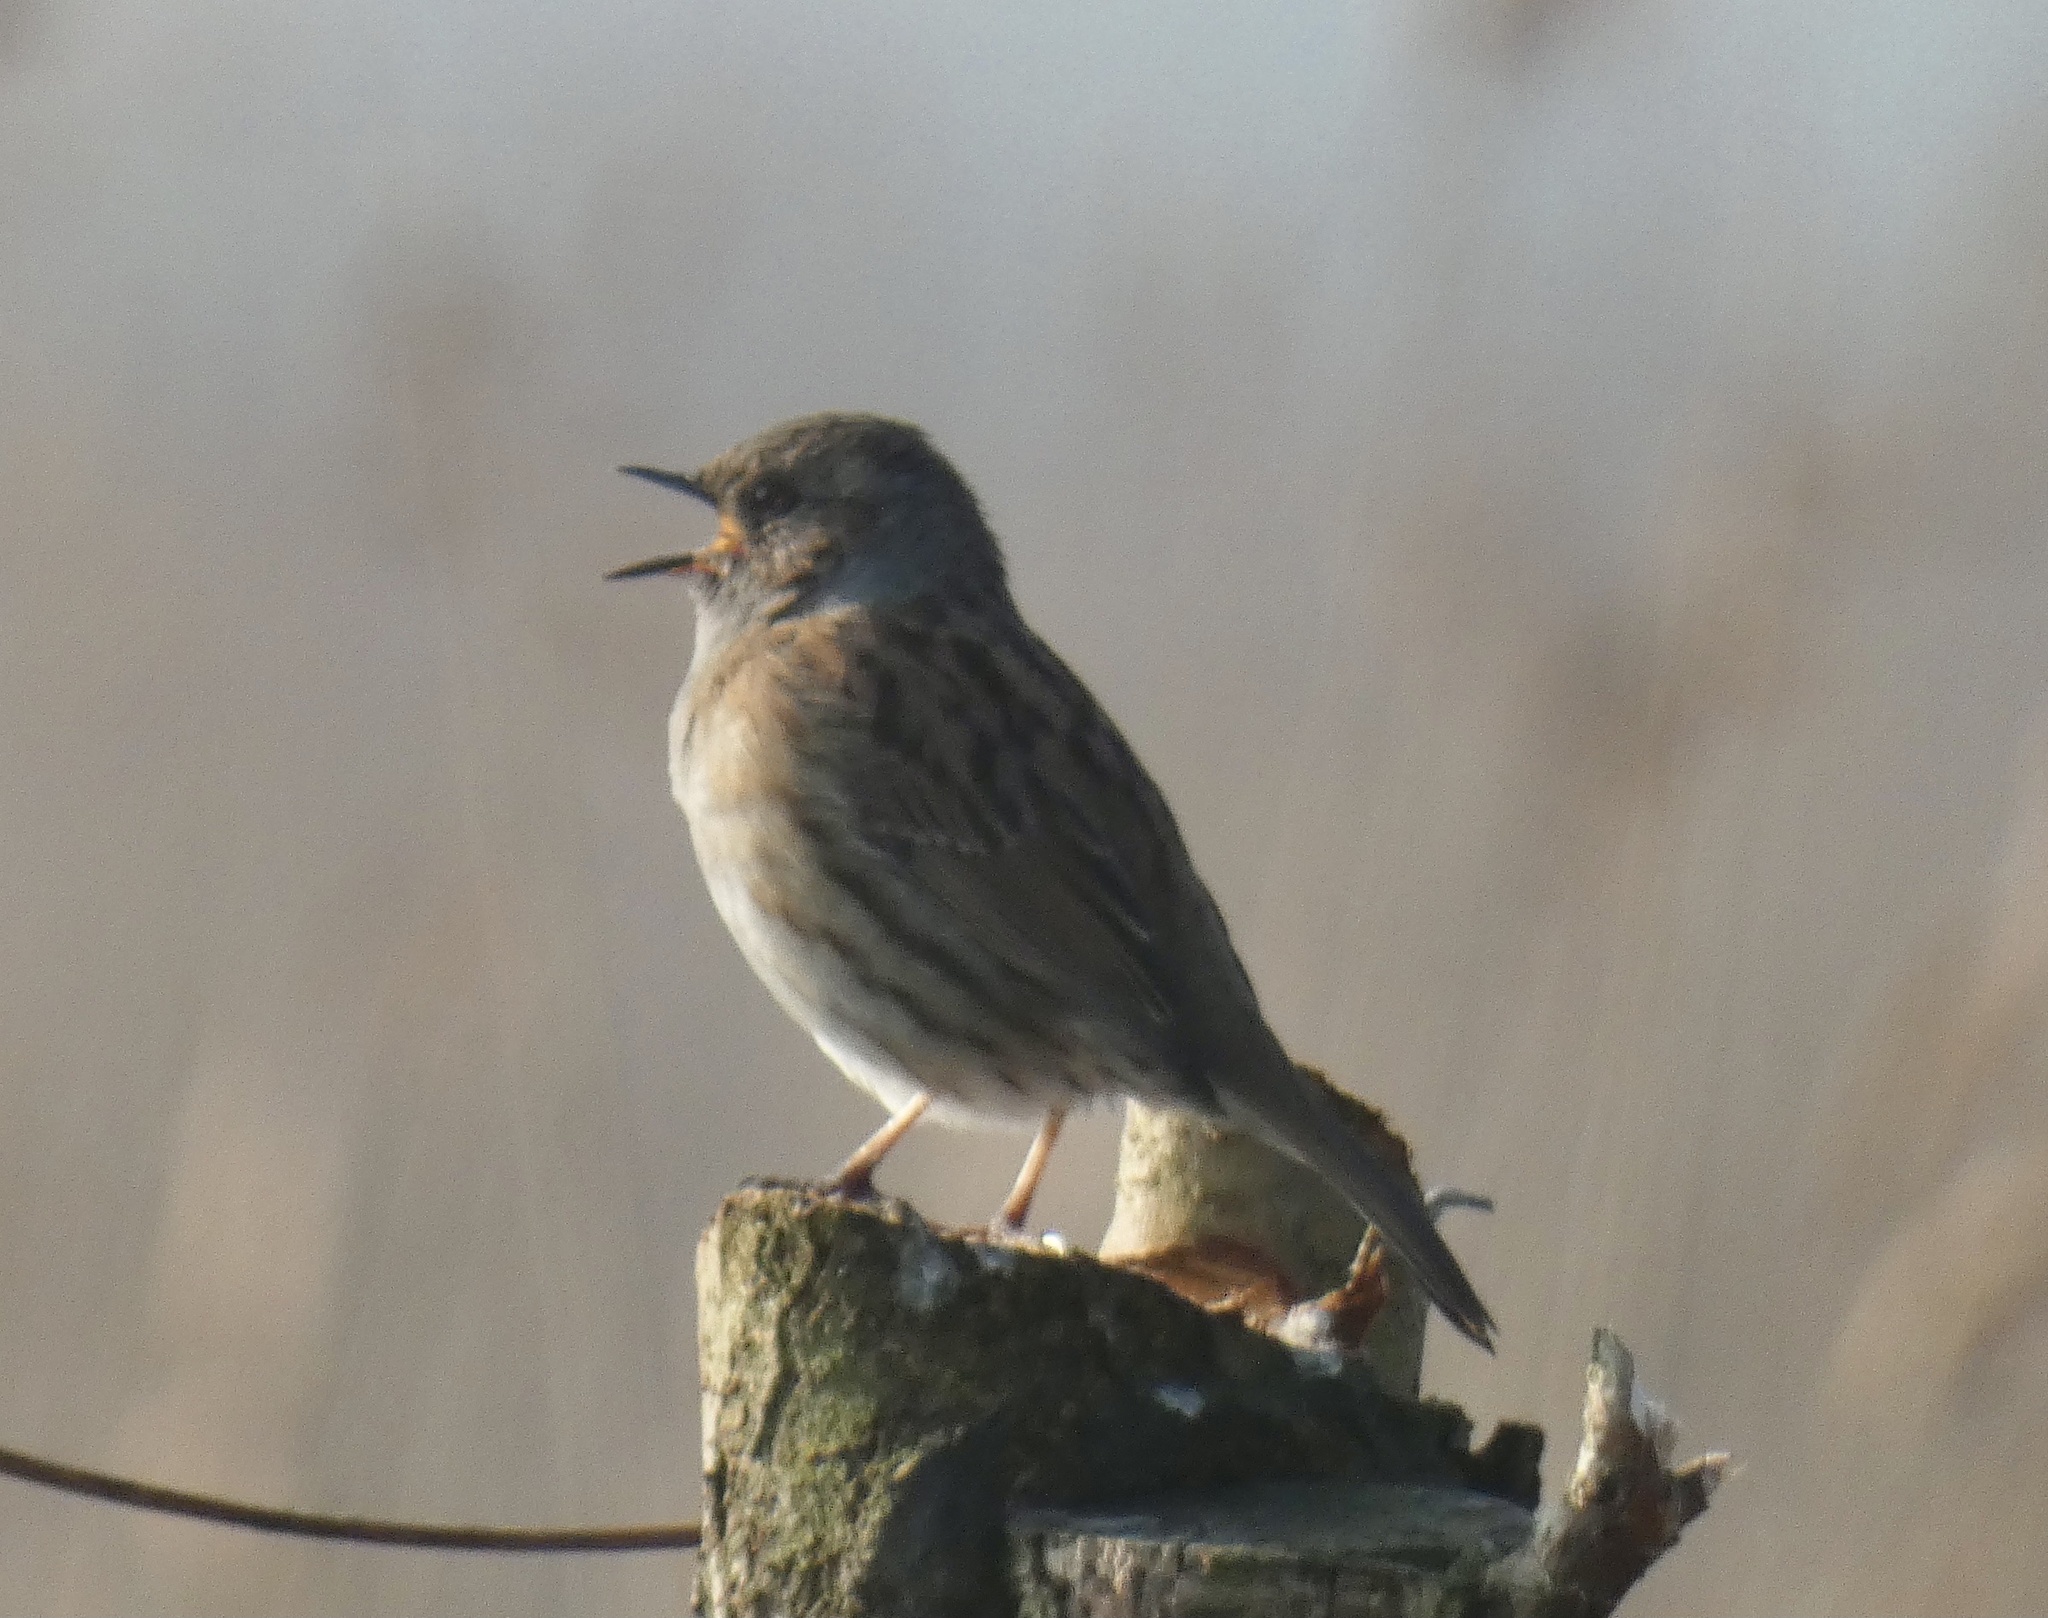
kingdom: Animalia
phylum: Chordata
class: Aves
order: Passeriformes
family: Prunellidae
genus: Prunella
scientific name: Prunella modularis
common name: Dunnock
